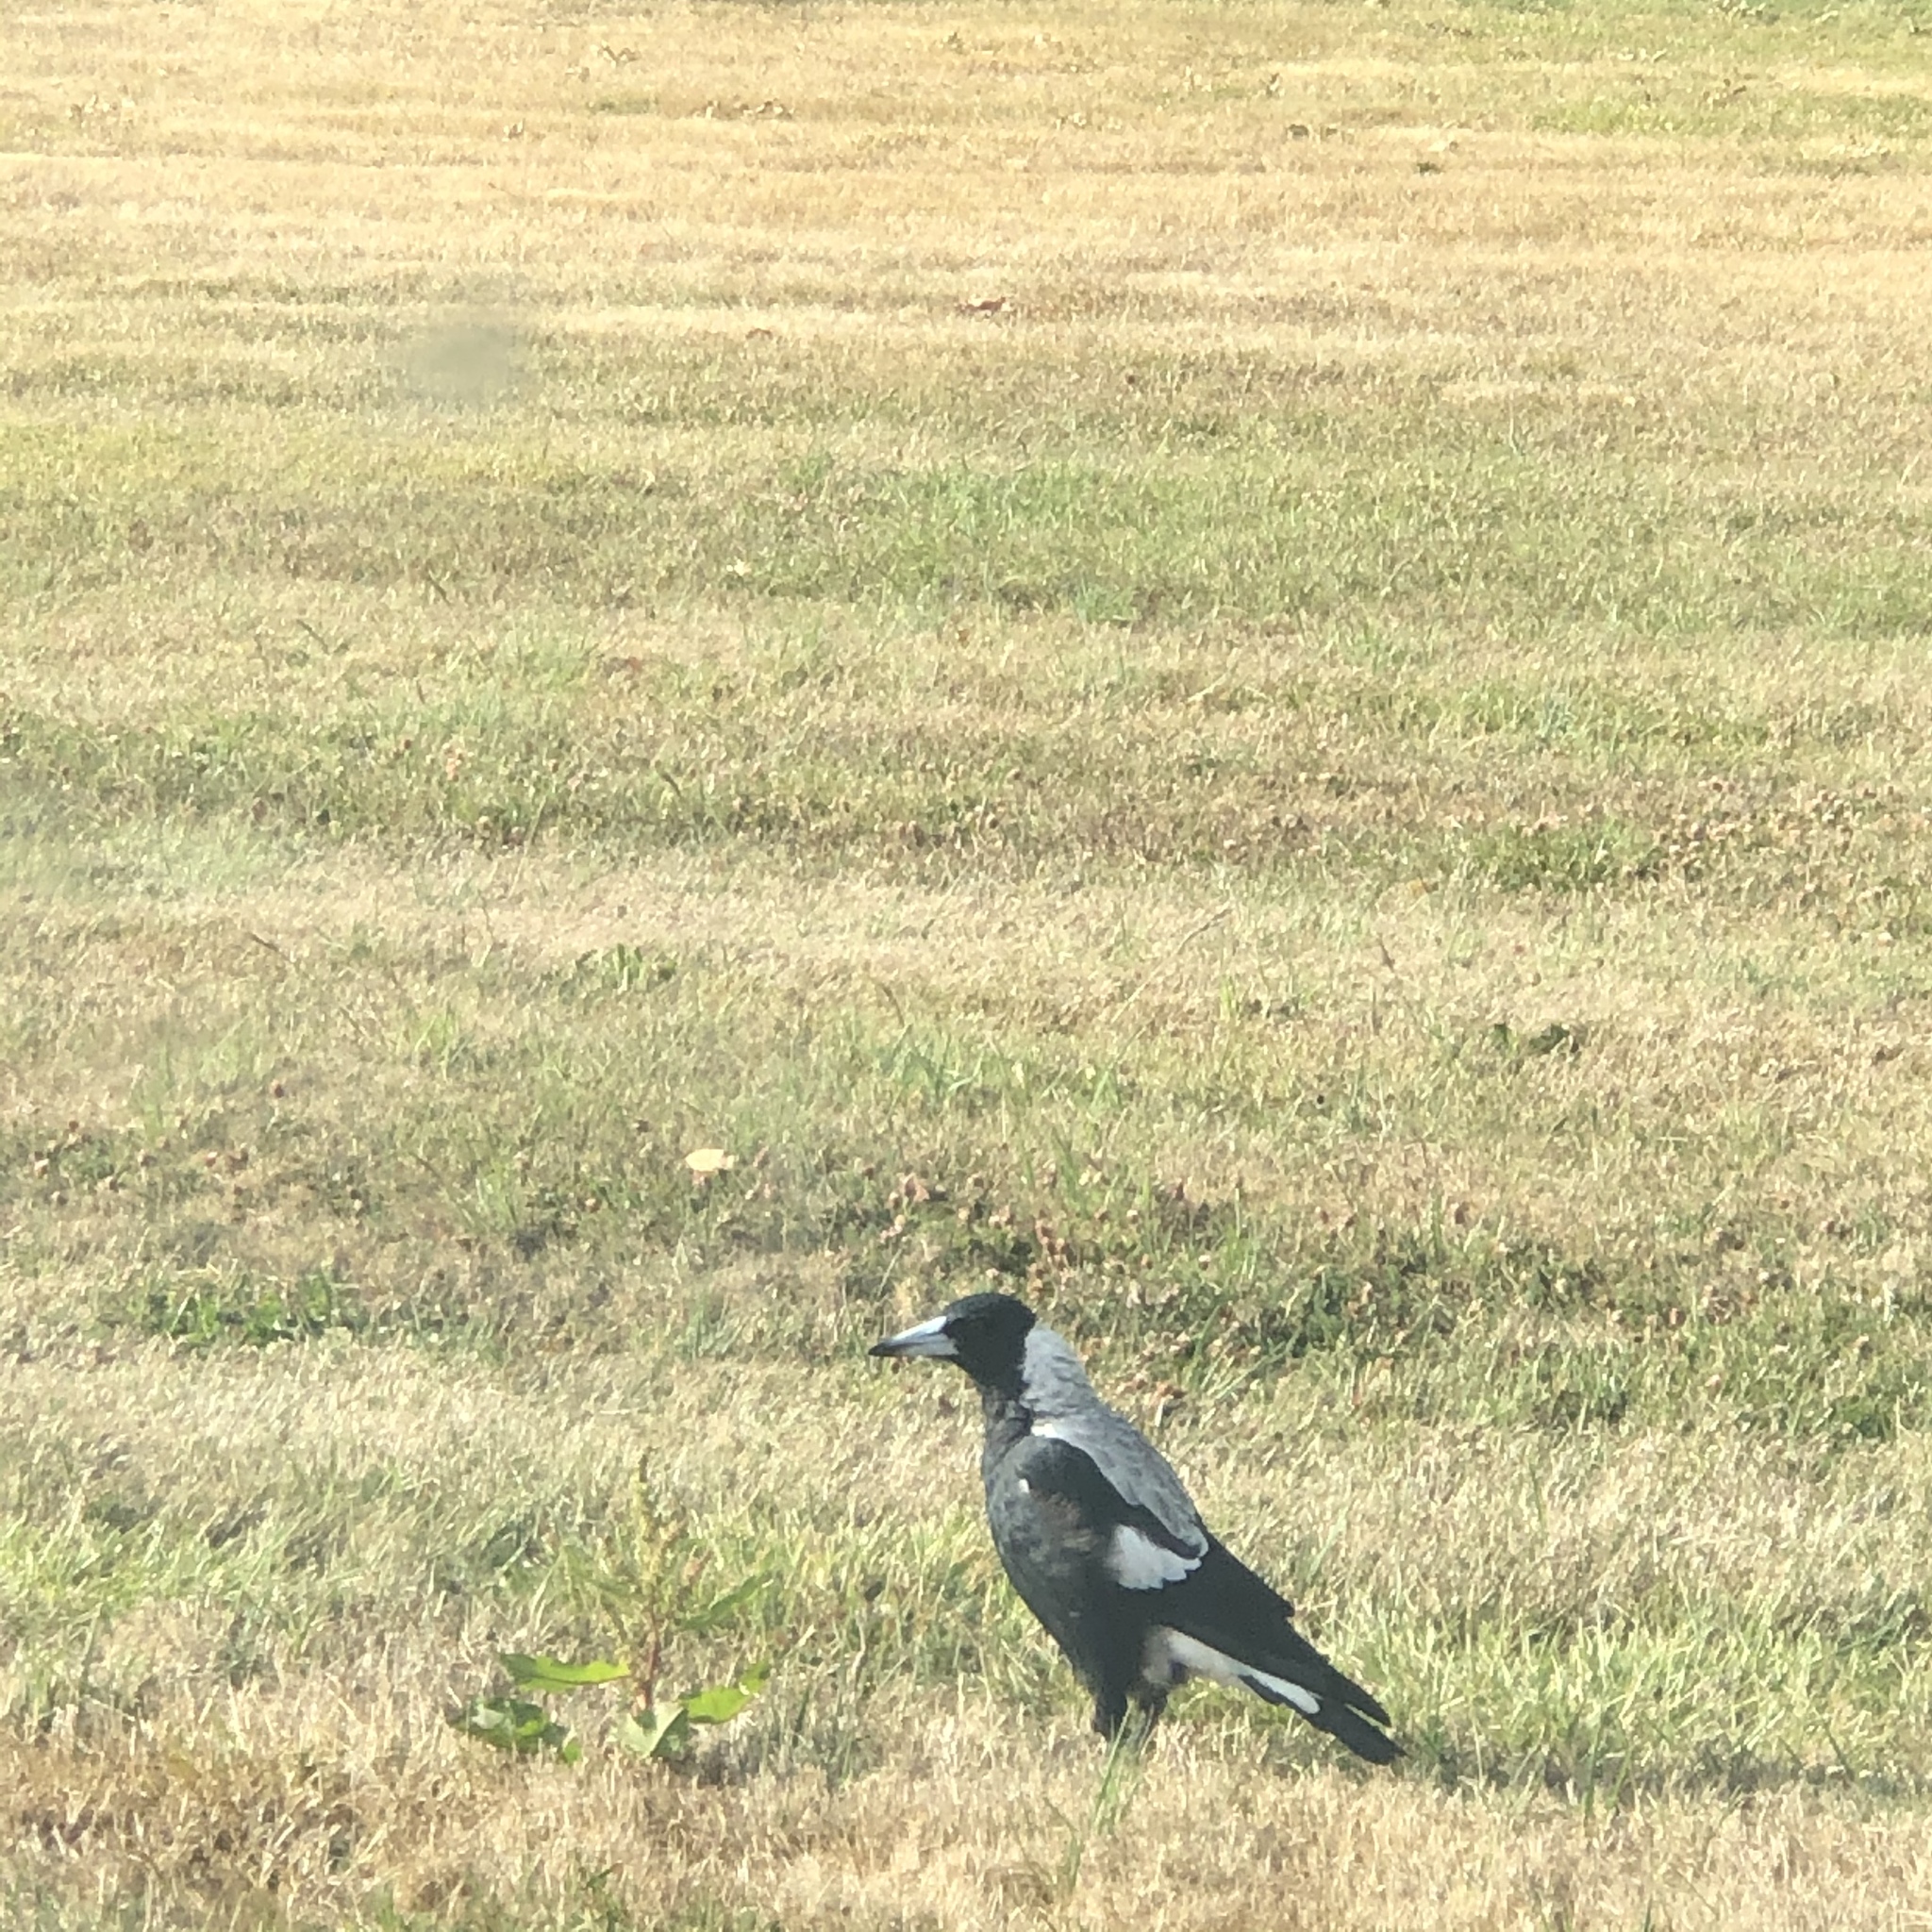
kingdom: Animalia
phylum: Chordata
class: Aves
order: Passeriformes
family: Cracticidae
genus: Gymnorhina
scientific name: Gymnorhina tibicen
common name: Australian magpie
